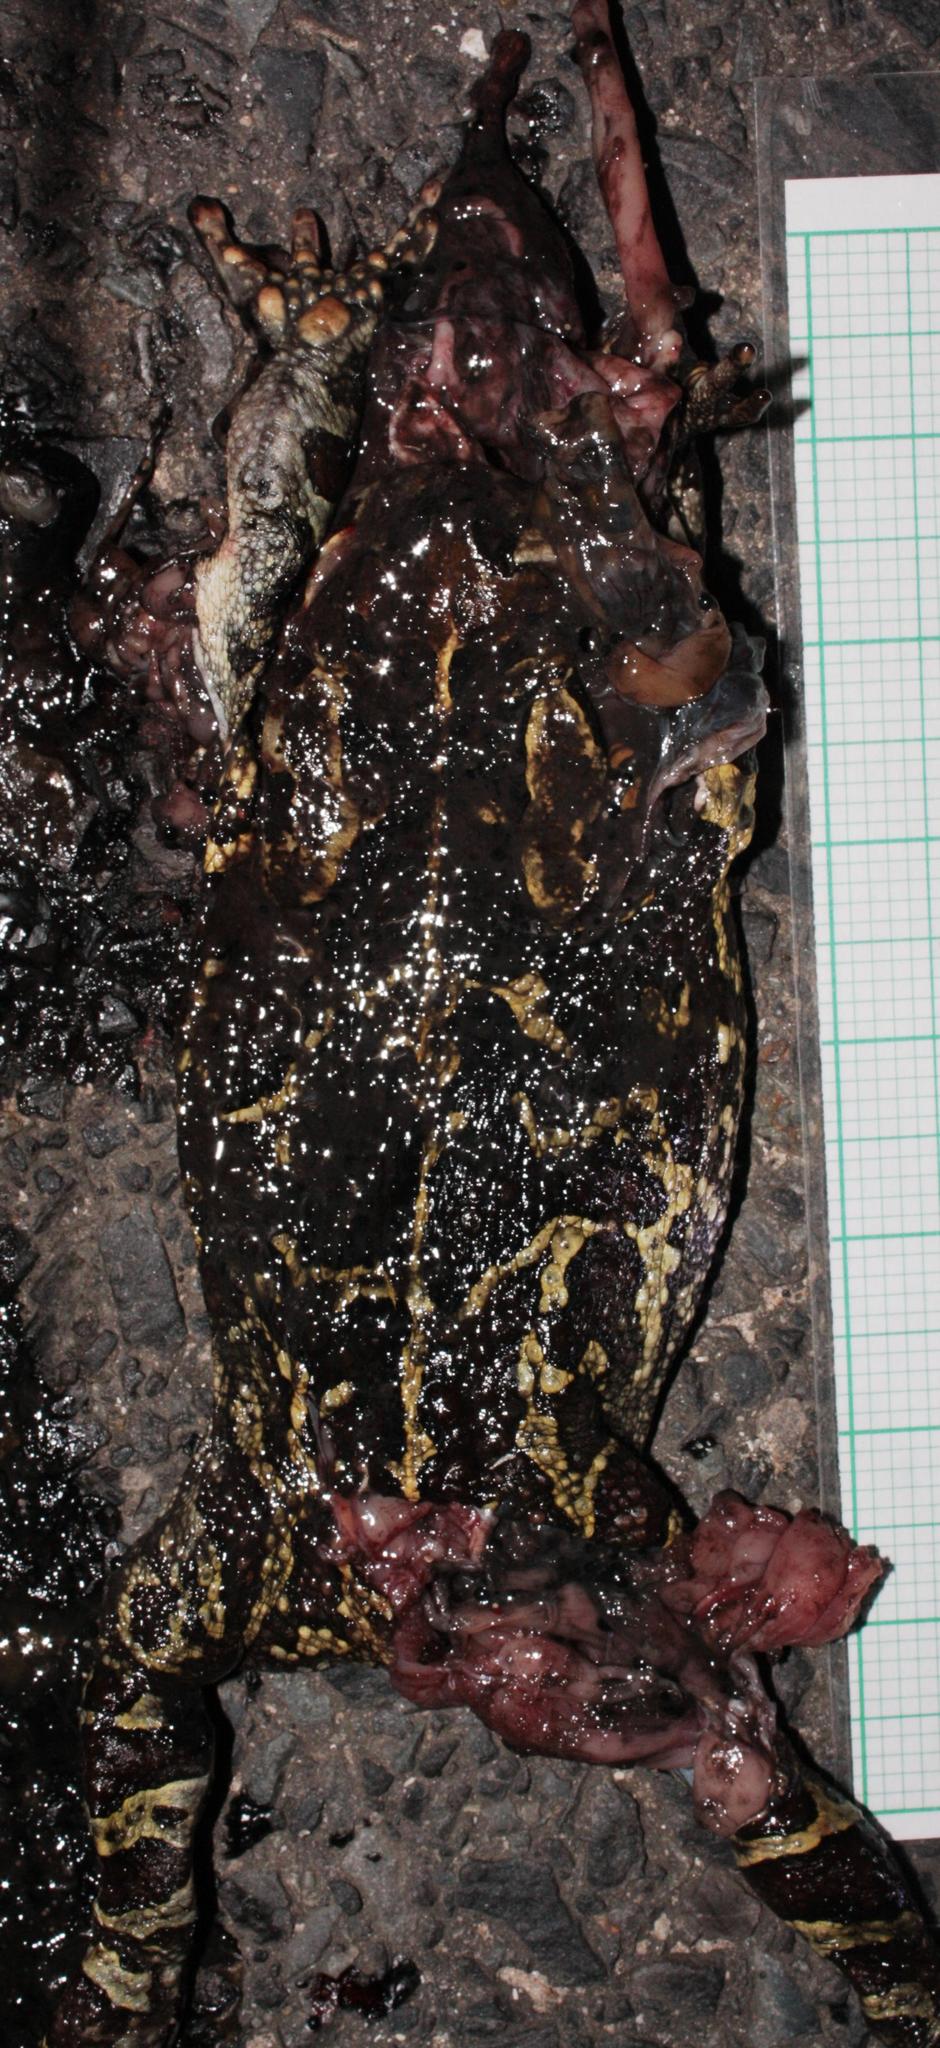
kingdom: Animalia
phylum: Chordata
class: Amphibia
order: Anura
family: Bufonidae
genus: Sclerophrys
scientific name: Sclerophrys pantherina
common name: Panther toad
